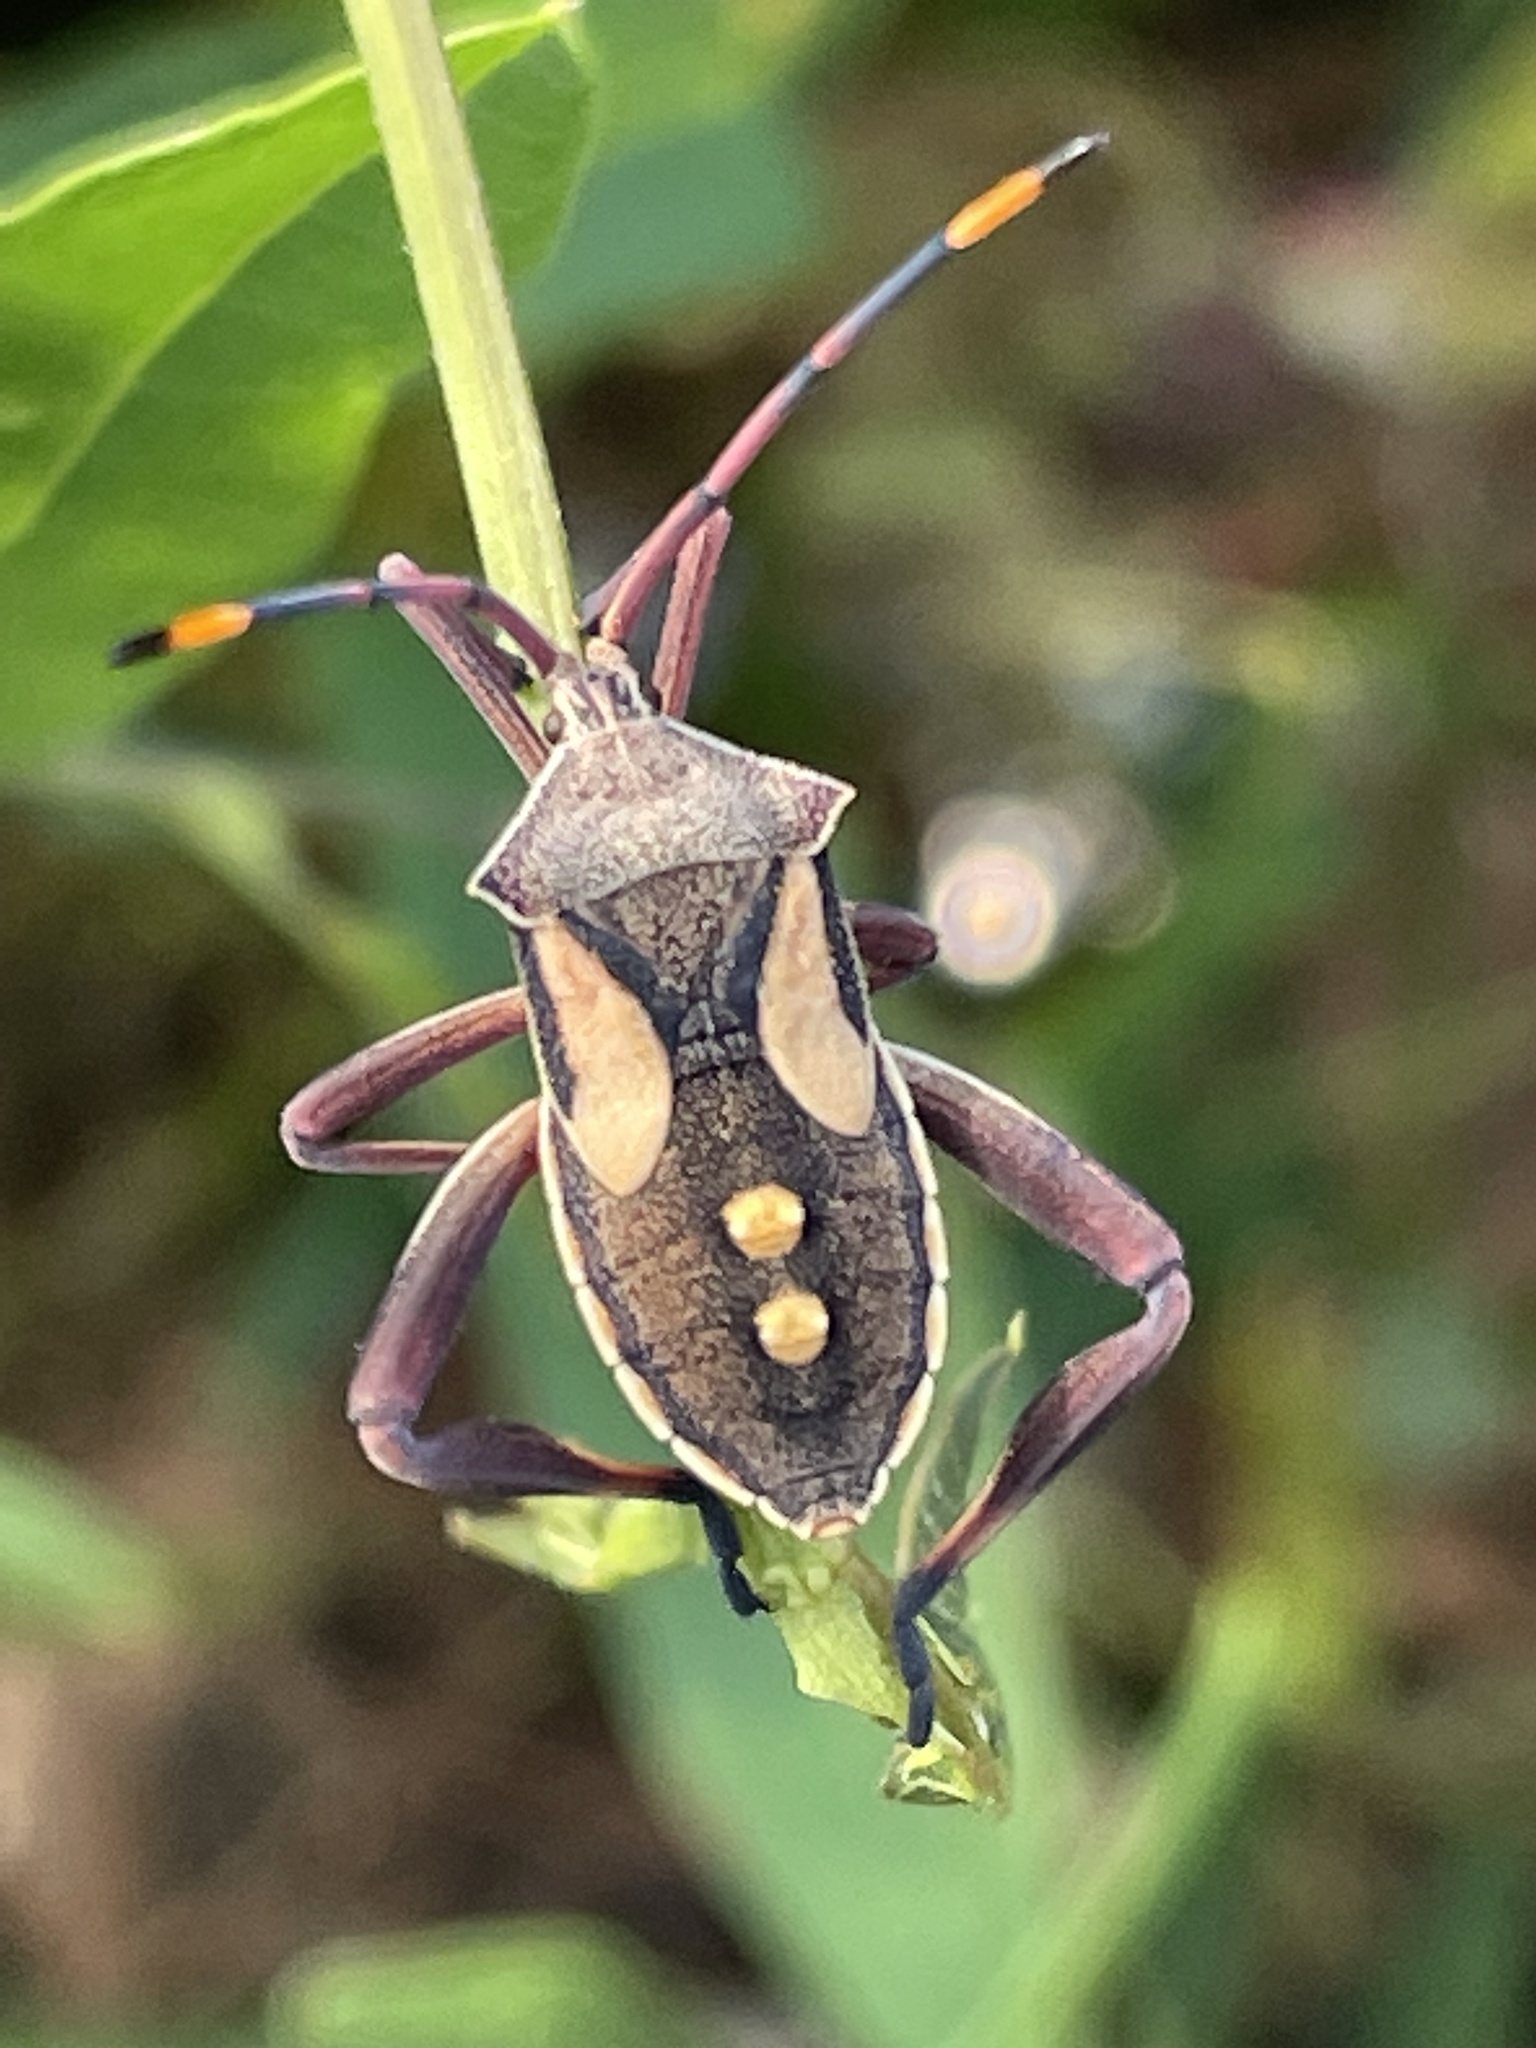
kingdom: Animalia
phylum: Arthropoda
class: Insecta
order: Hemiptera
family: Coreidae
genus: Mictis
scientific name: Mictis profana
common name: Crusader bug
